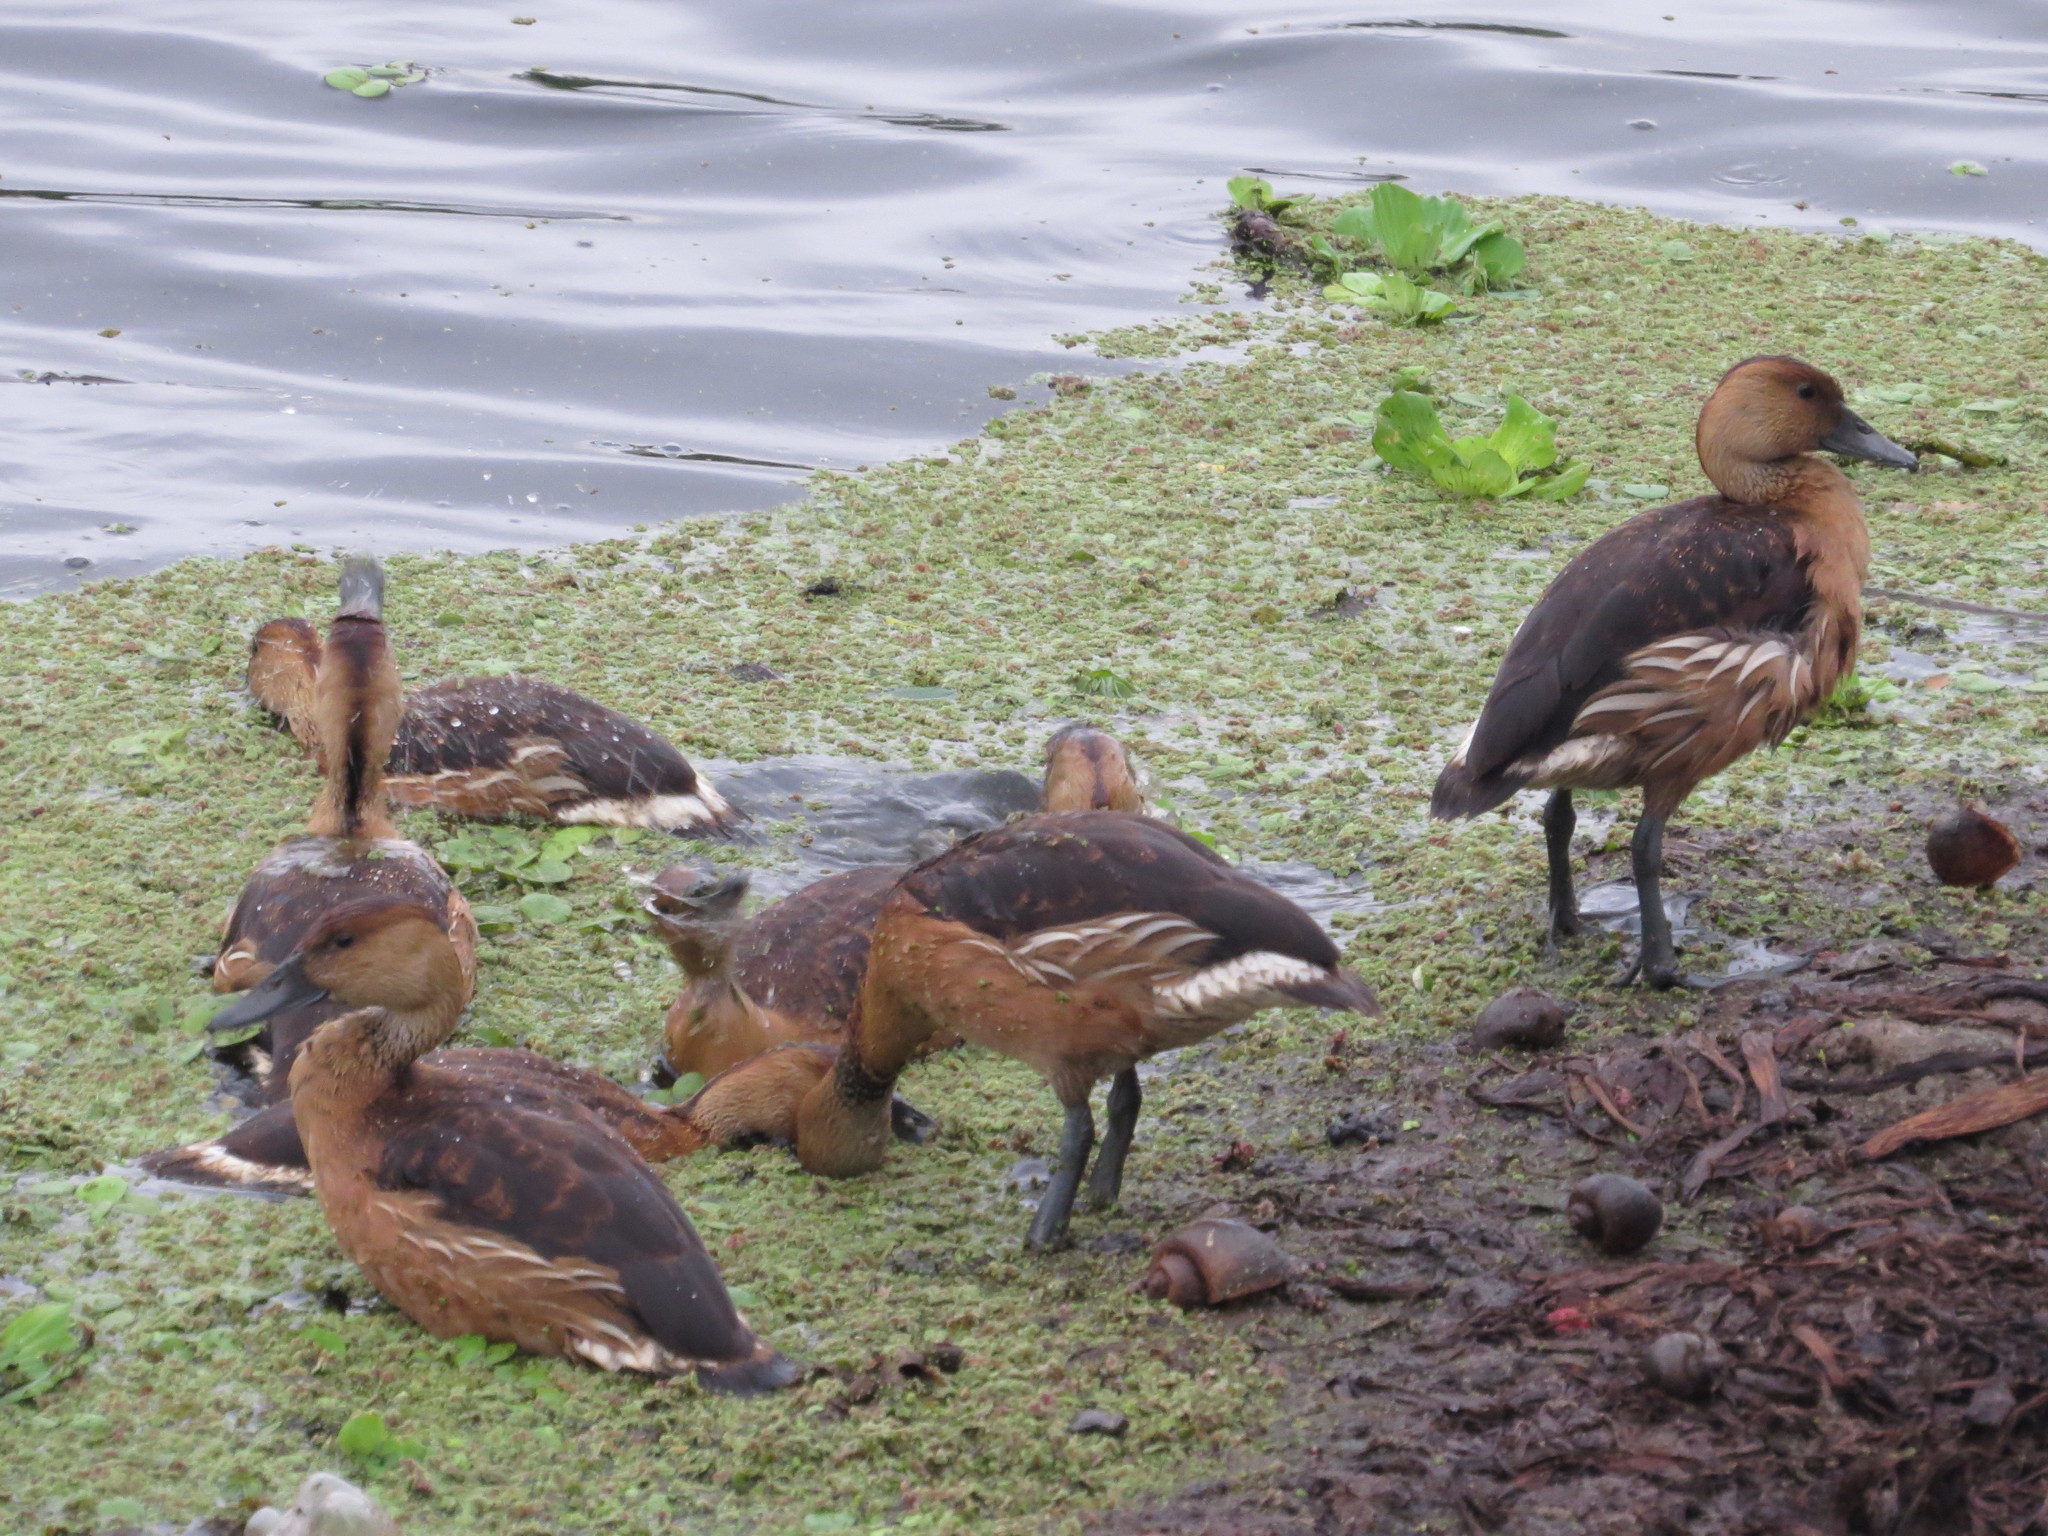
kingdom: Animalia
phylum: Chordata
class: Aves
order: Anseriformes
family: Anatidae
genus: Dendrocygna
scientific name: Dendrocygna bicolor
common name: Fulvous whistling duck
